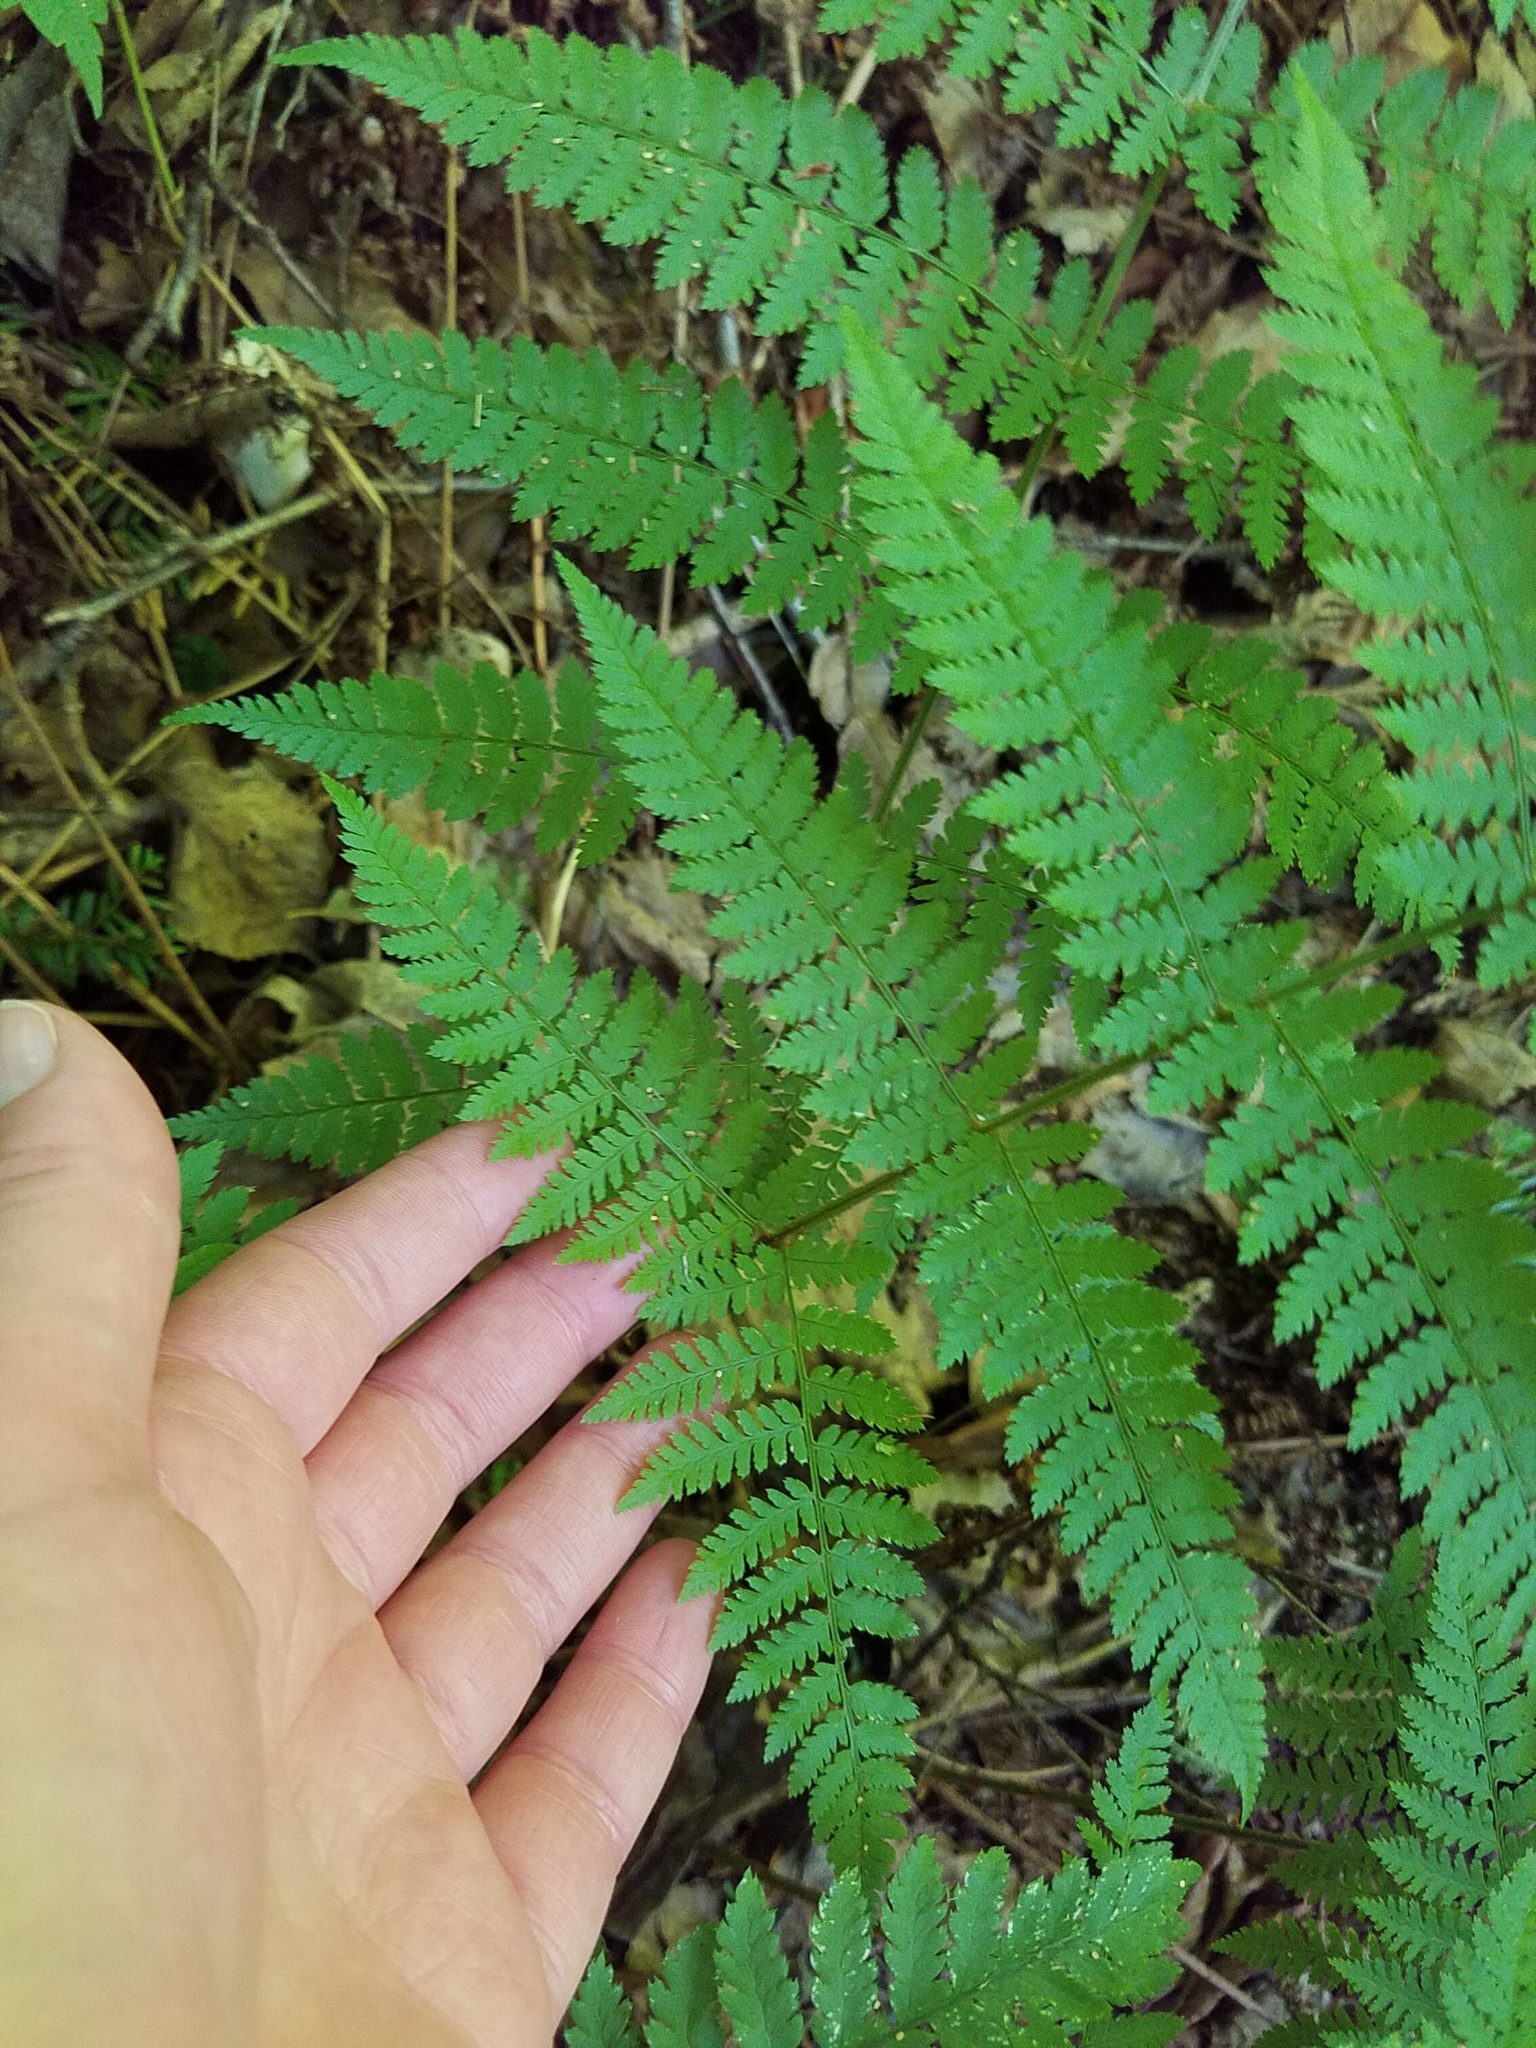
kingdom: Plantae
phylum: Tracheophyta
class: Polypodiopsida
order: Polypodiales
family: Dryopteridaceae
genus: Dryopteris
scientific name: Dryopteris intermedia
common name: Evergreen wood fern
